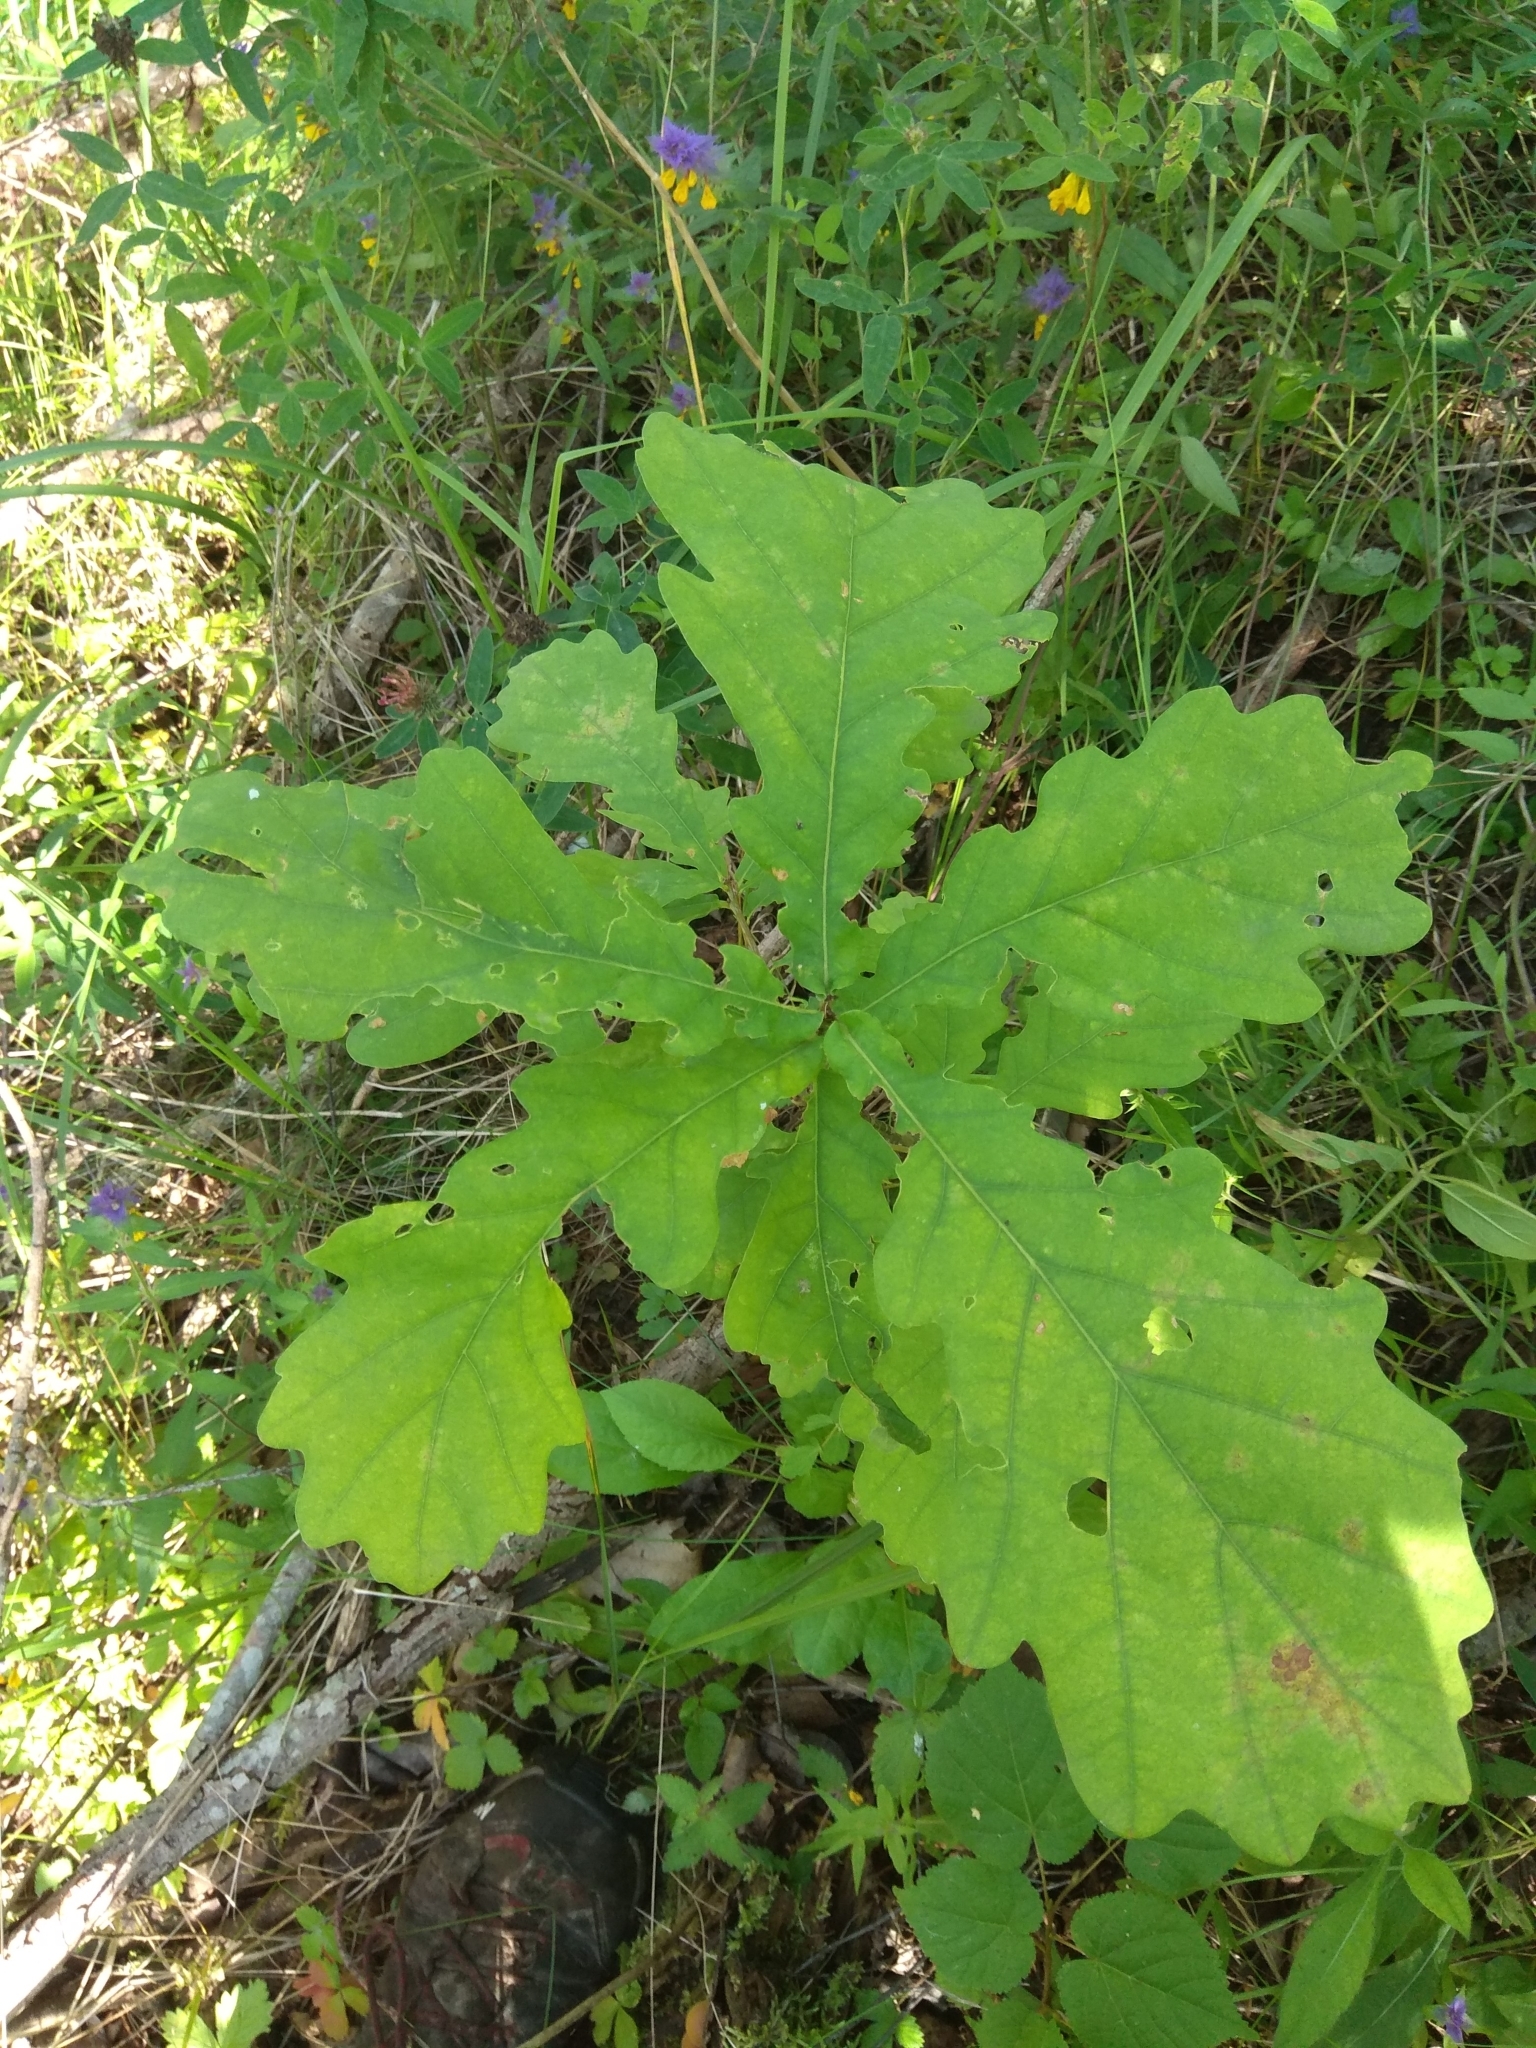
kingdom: Plantae
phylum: Tracheophyta
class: Magnoliopsida
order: Fagales
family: Fagaceae
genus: Quercus
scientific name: Quercus robur
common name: Pedunculate oak
